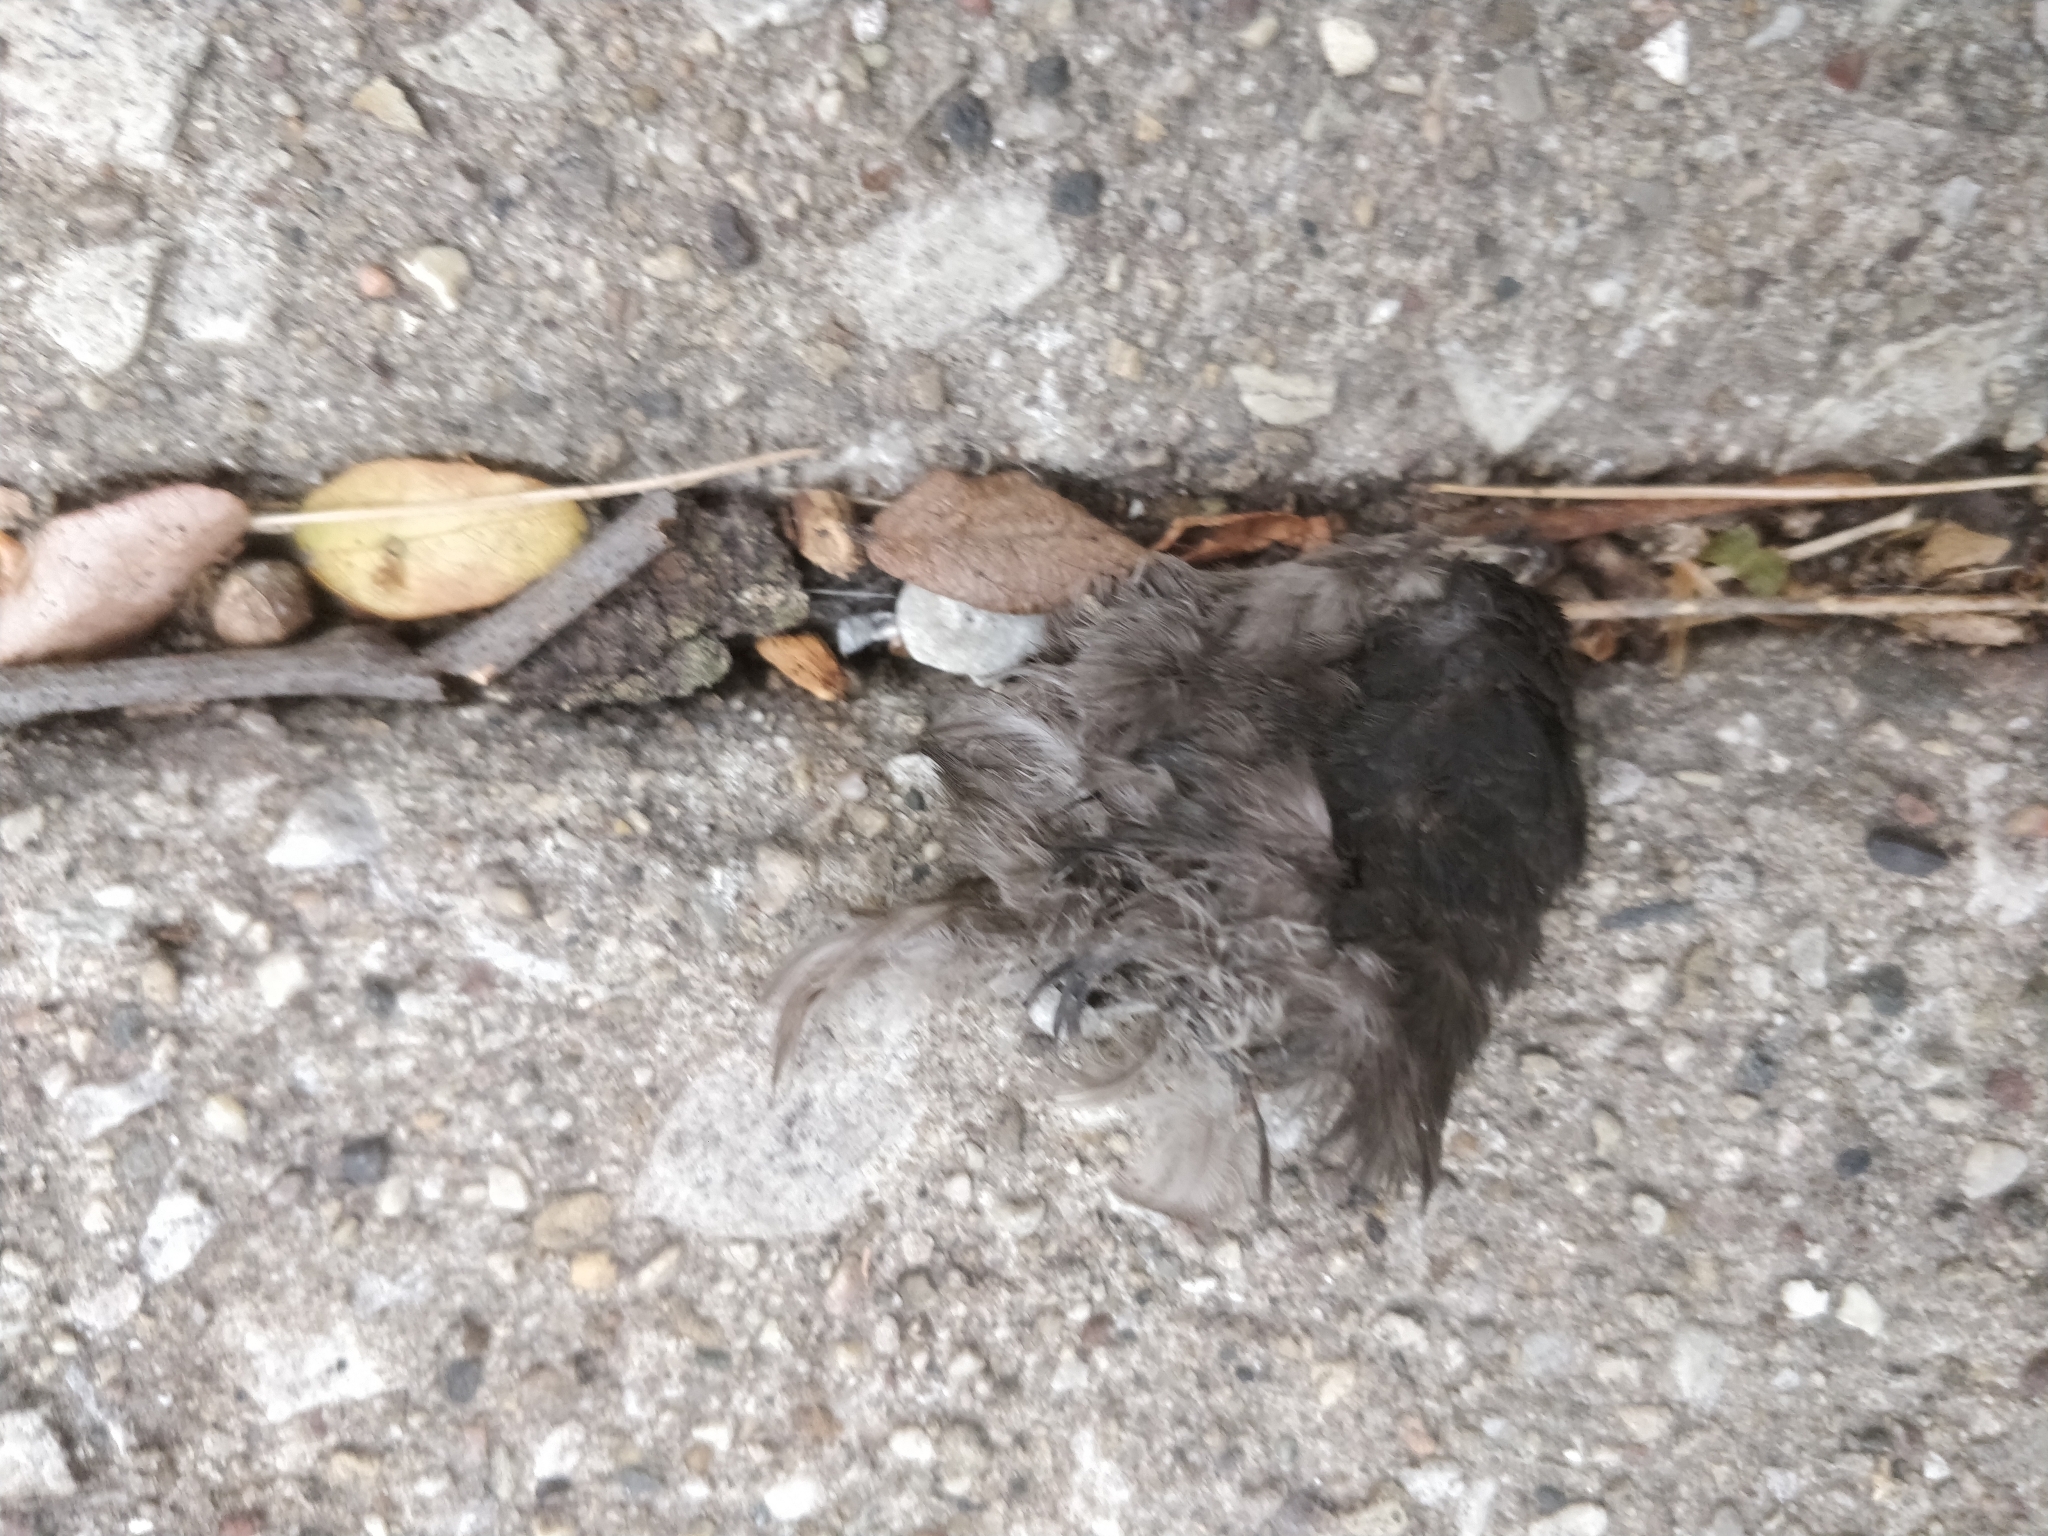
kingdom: Animalia
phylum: Chordata
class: Aves
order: Apodiformes
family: Apodidae
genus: Chaetura
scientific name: Chaetura pelagica
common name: Chimney swift
